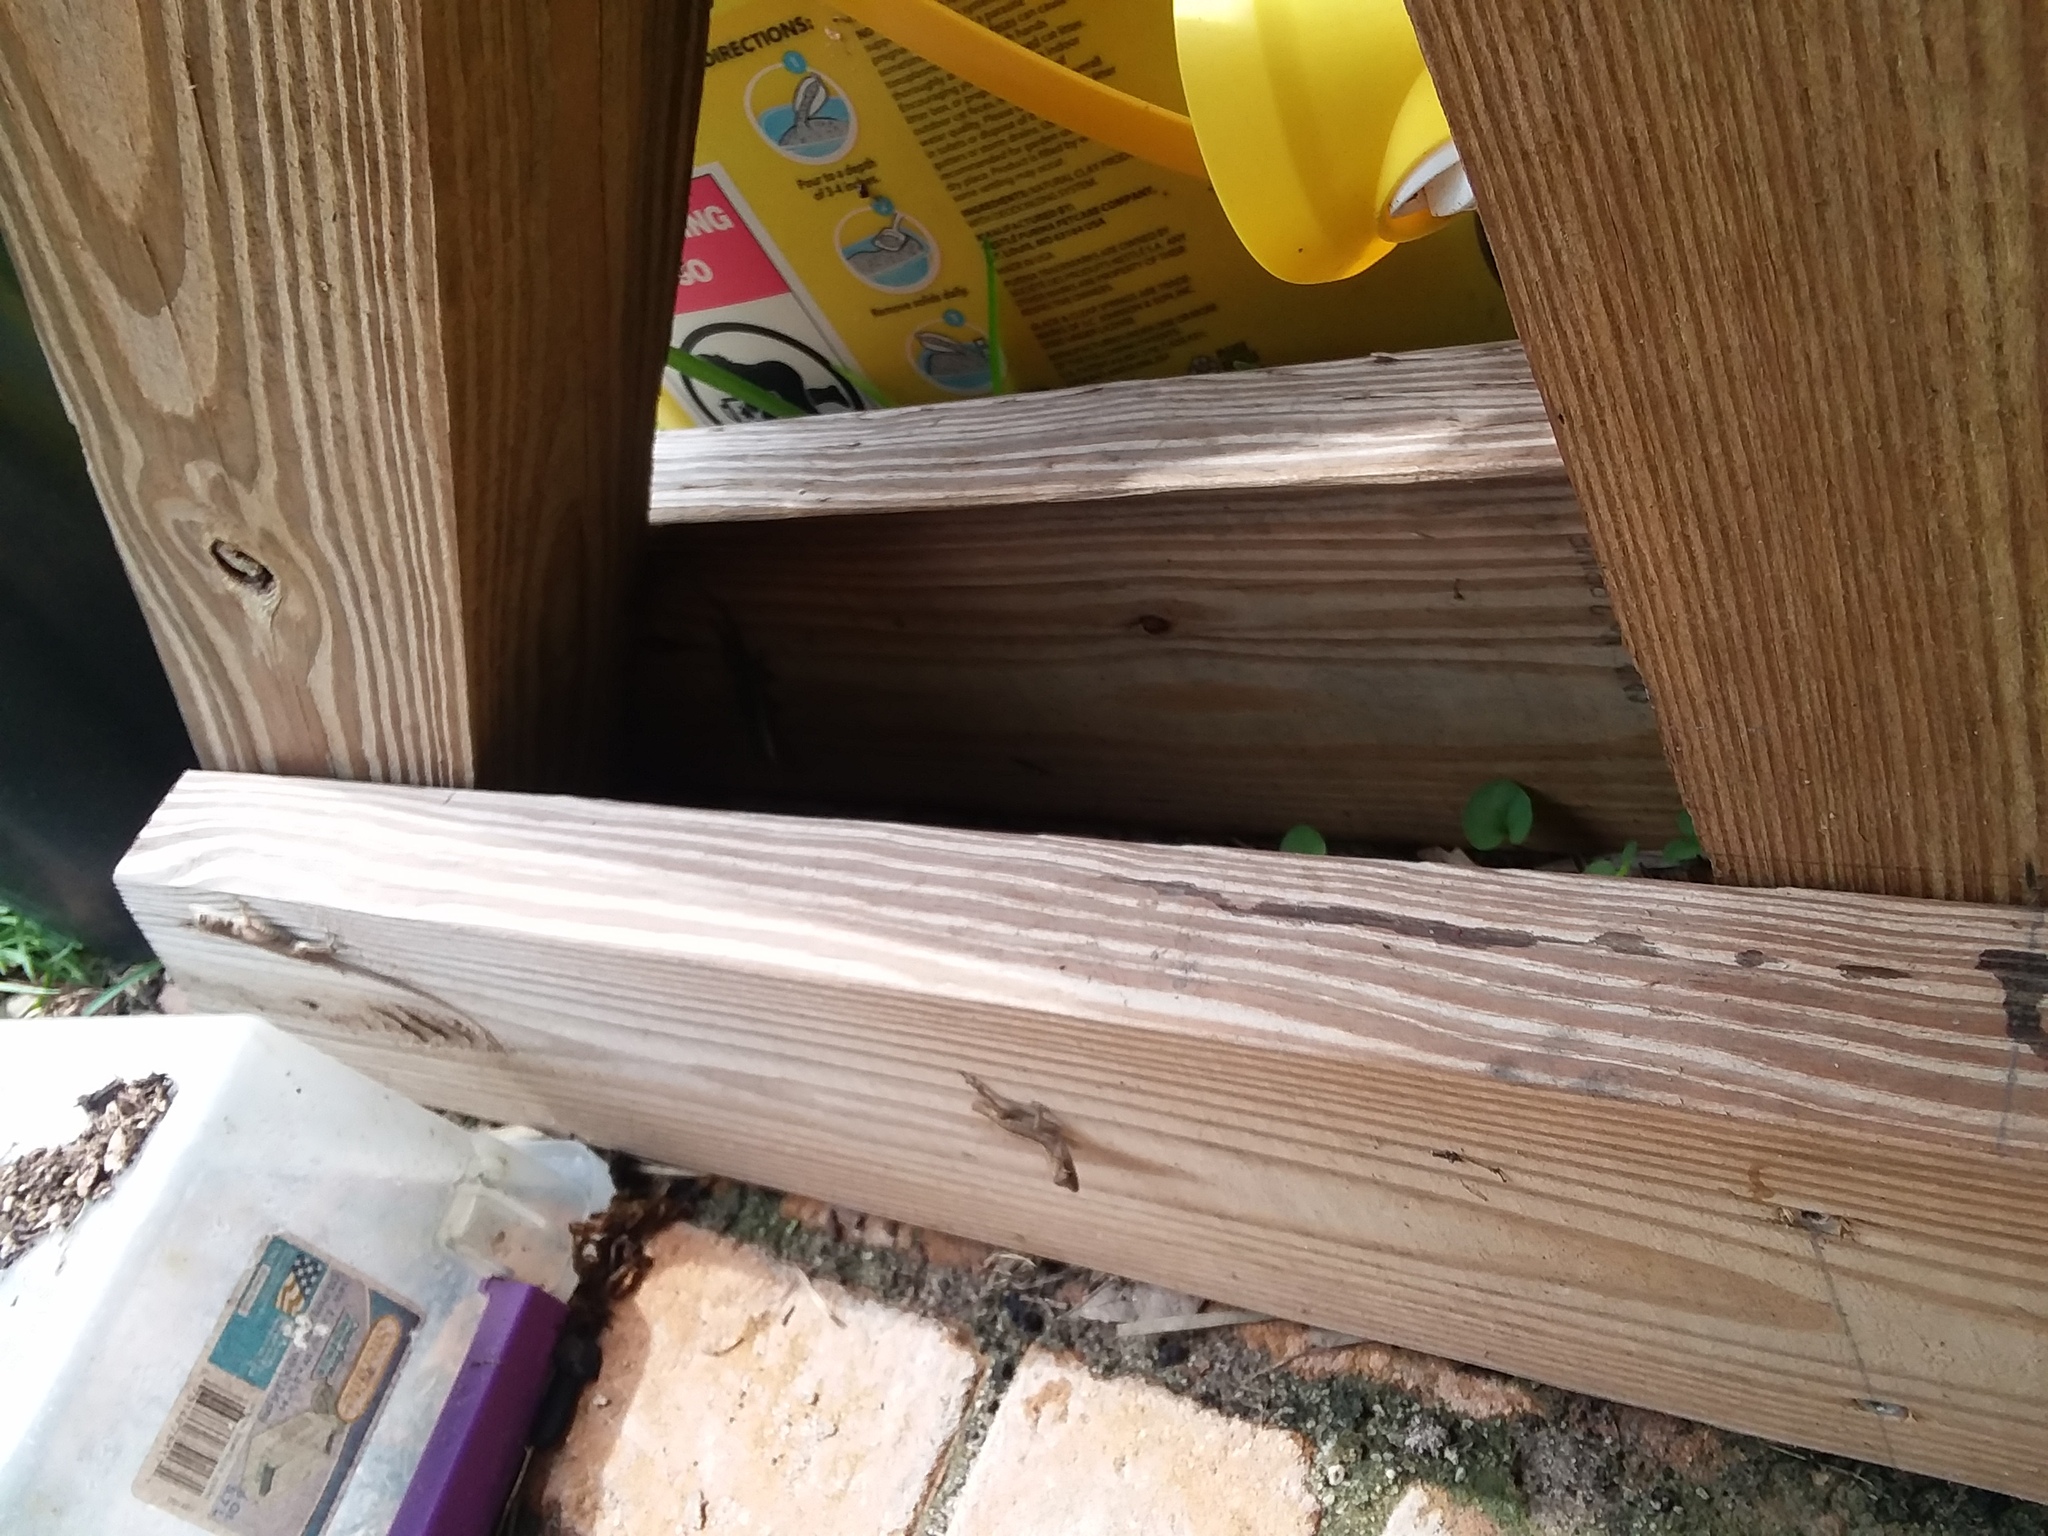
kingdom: Animalia
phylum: Chordata
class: Squamata
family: Dactyloidae
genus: Anolis
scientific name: Anolis sagrei
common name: Brown anole
